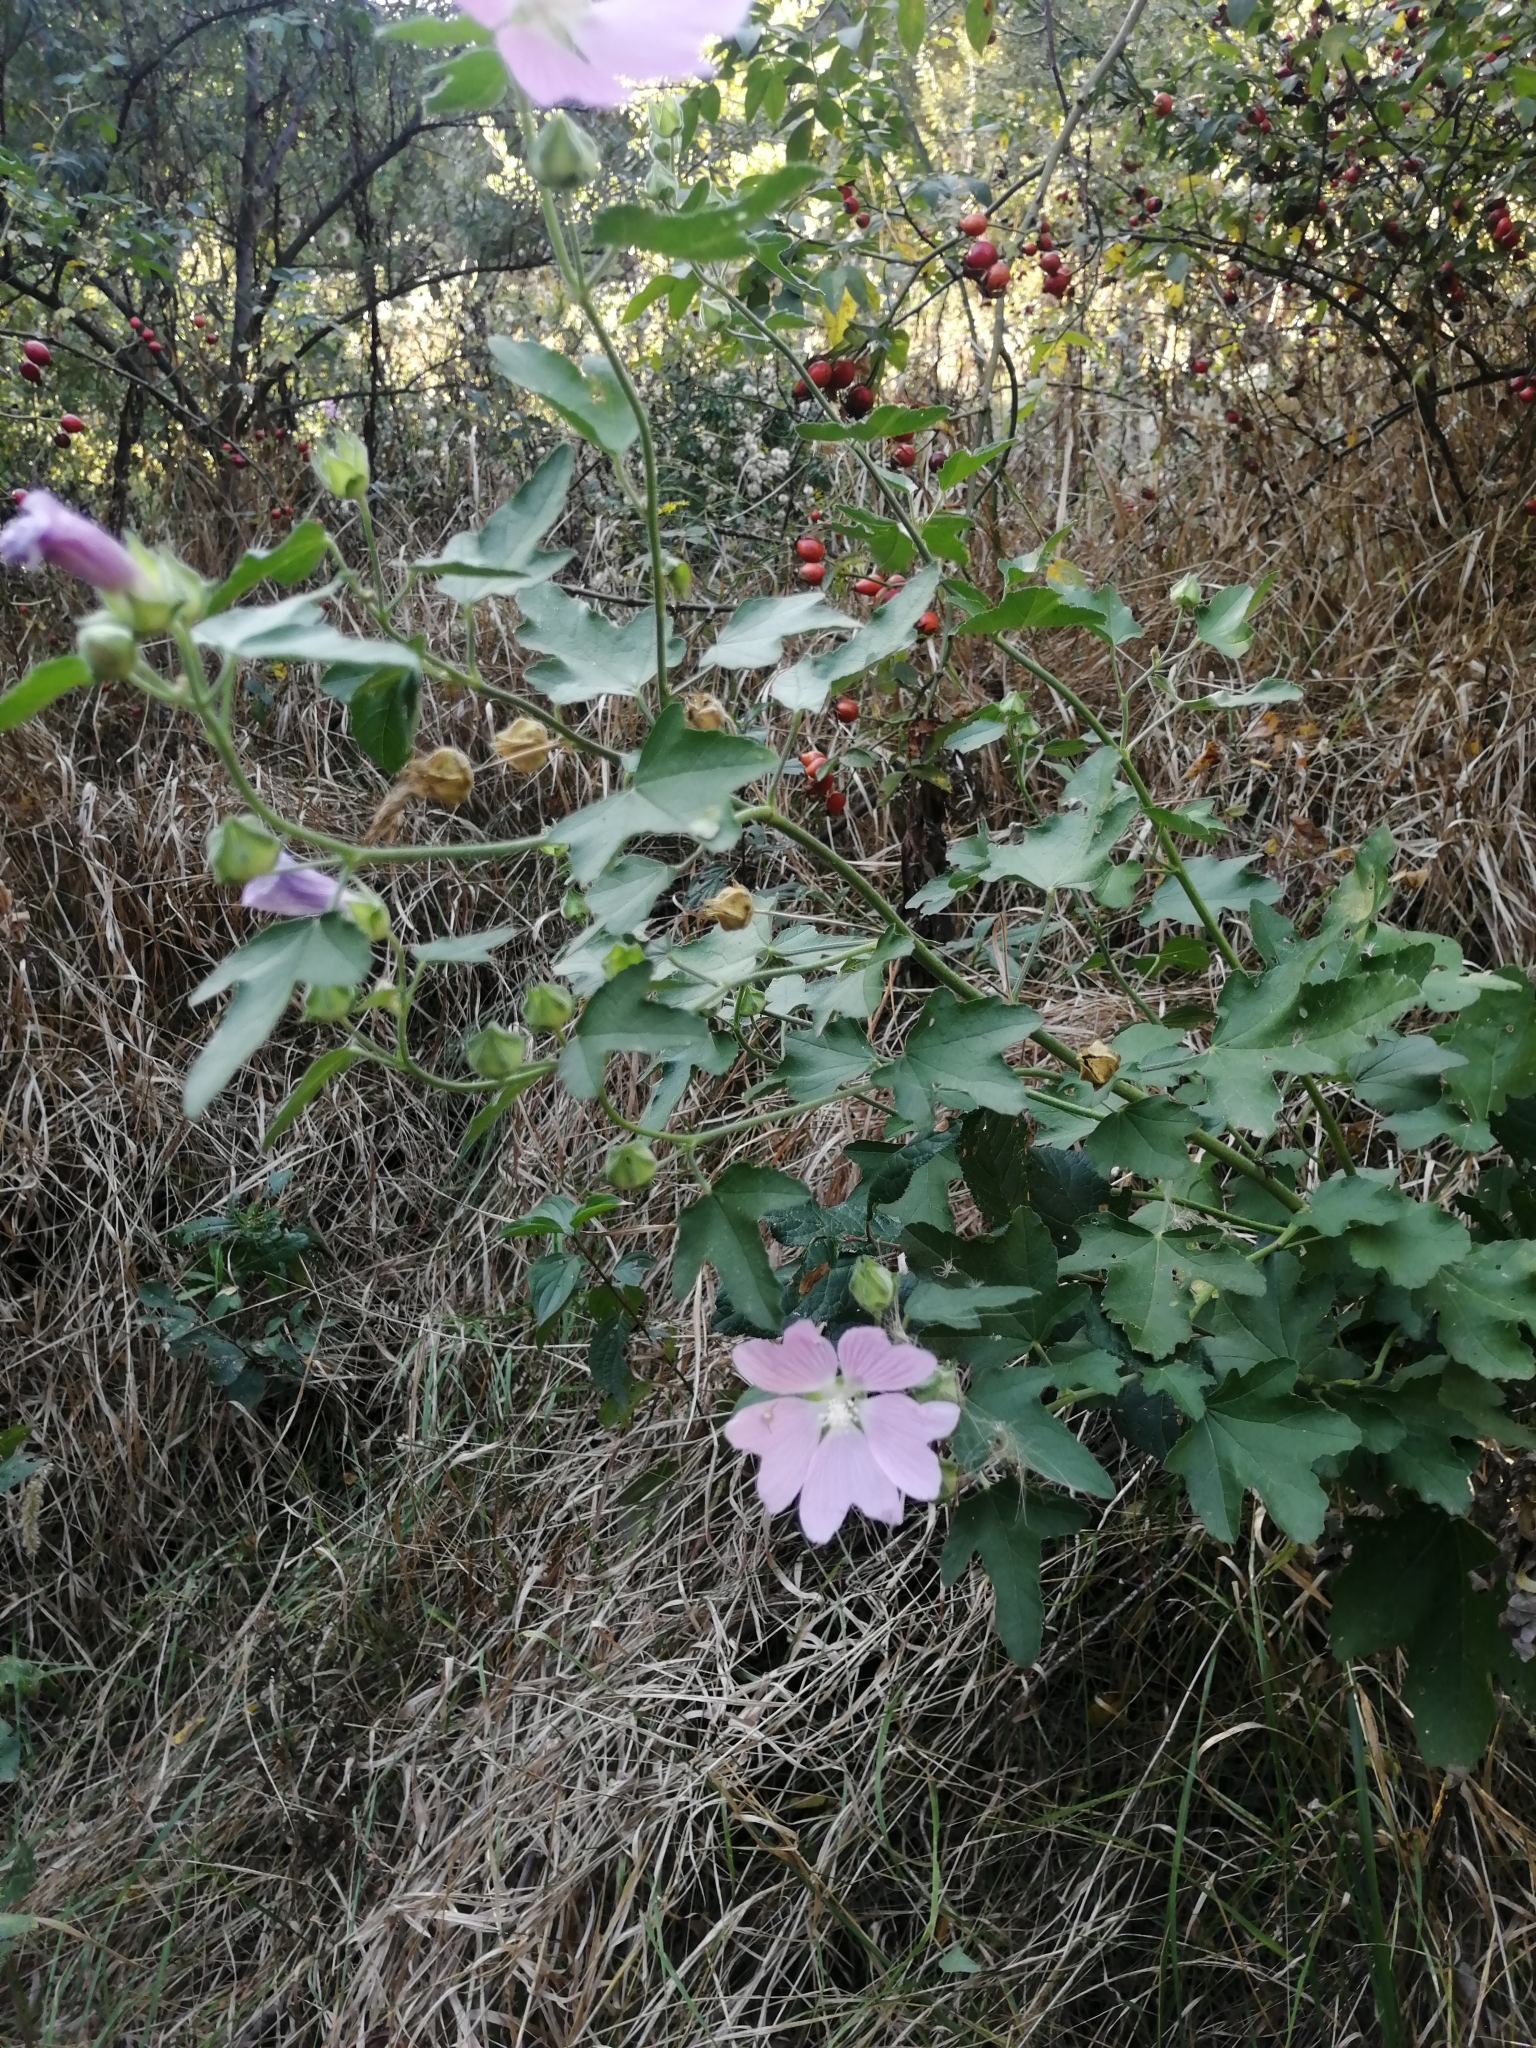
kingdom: Plantae
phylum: Tracheophyta
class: Magnoliopsida
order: Malvales
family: Malvaceae
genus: Malva
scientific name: Malva thuringiaca
